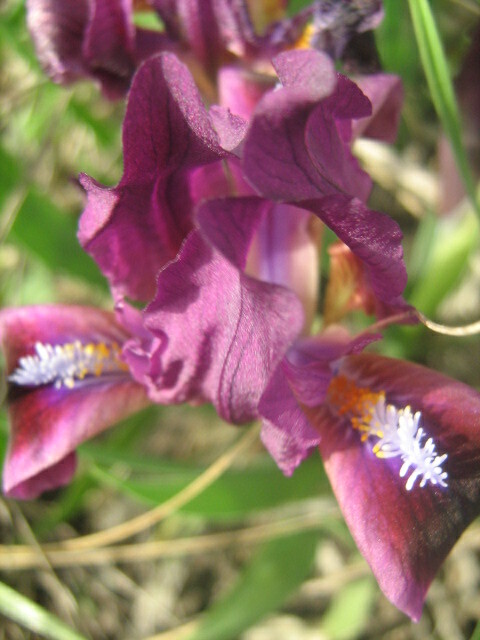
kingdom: Plantae
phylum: Tracheophyta
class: Liliopsida
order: Asparagales
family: Iridaceae
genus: Iris
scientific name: Iris pumila
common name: Dwarf iris
